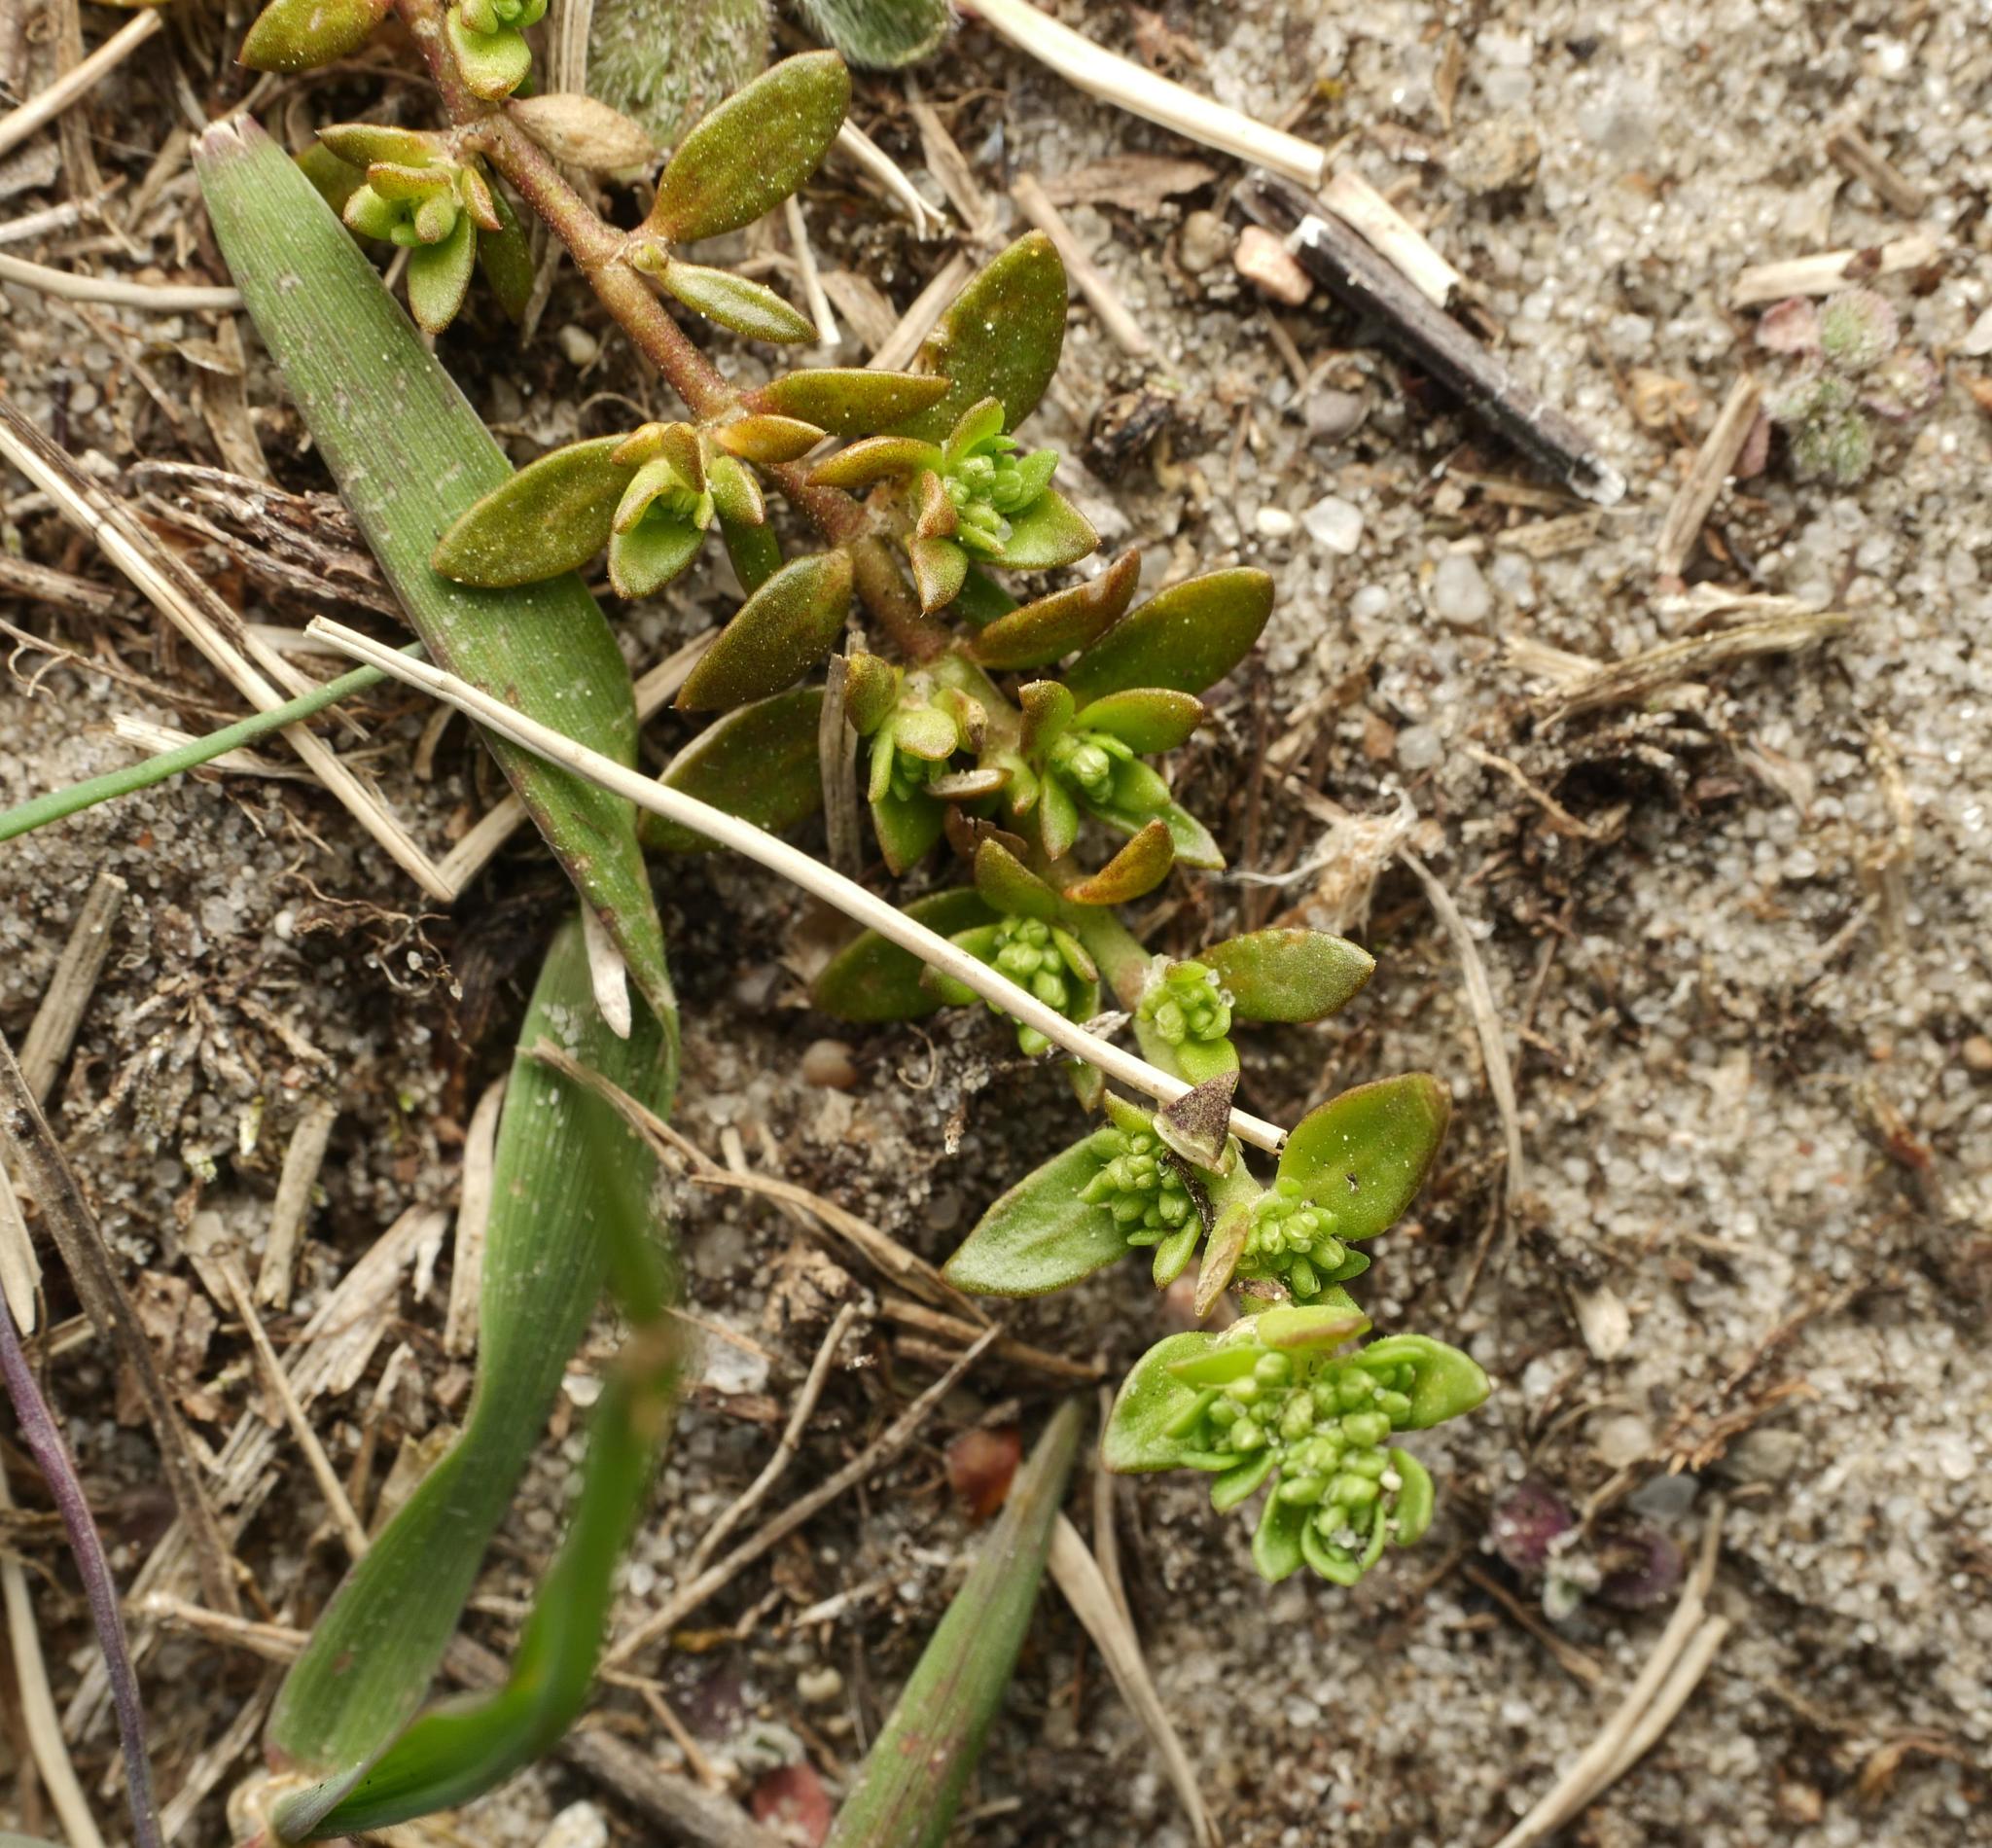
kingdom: Plantae
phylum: Tracheophyta
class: Magnoliopsida
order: Caryophyllales
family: Caryophyllaceae
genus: Herniaria
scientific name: Herniaria glabra
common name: Smooth rupturewort
